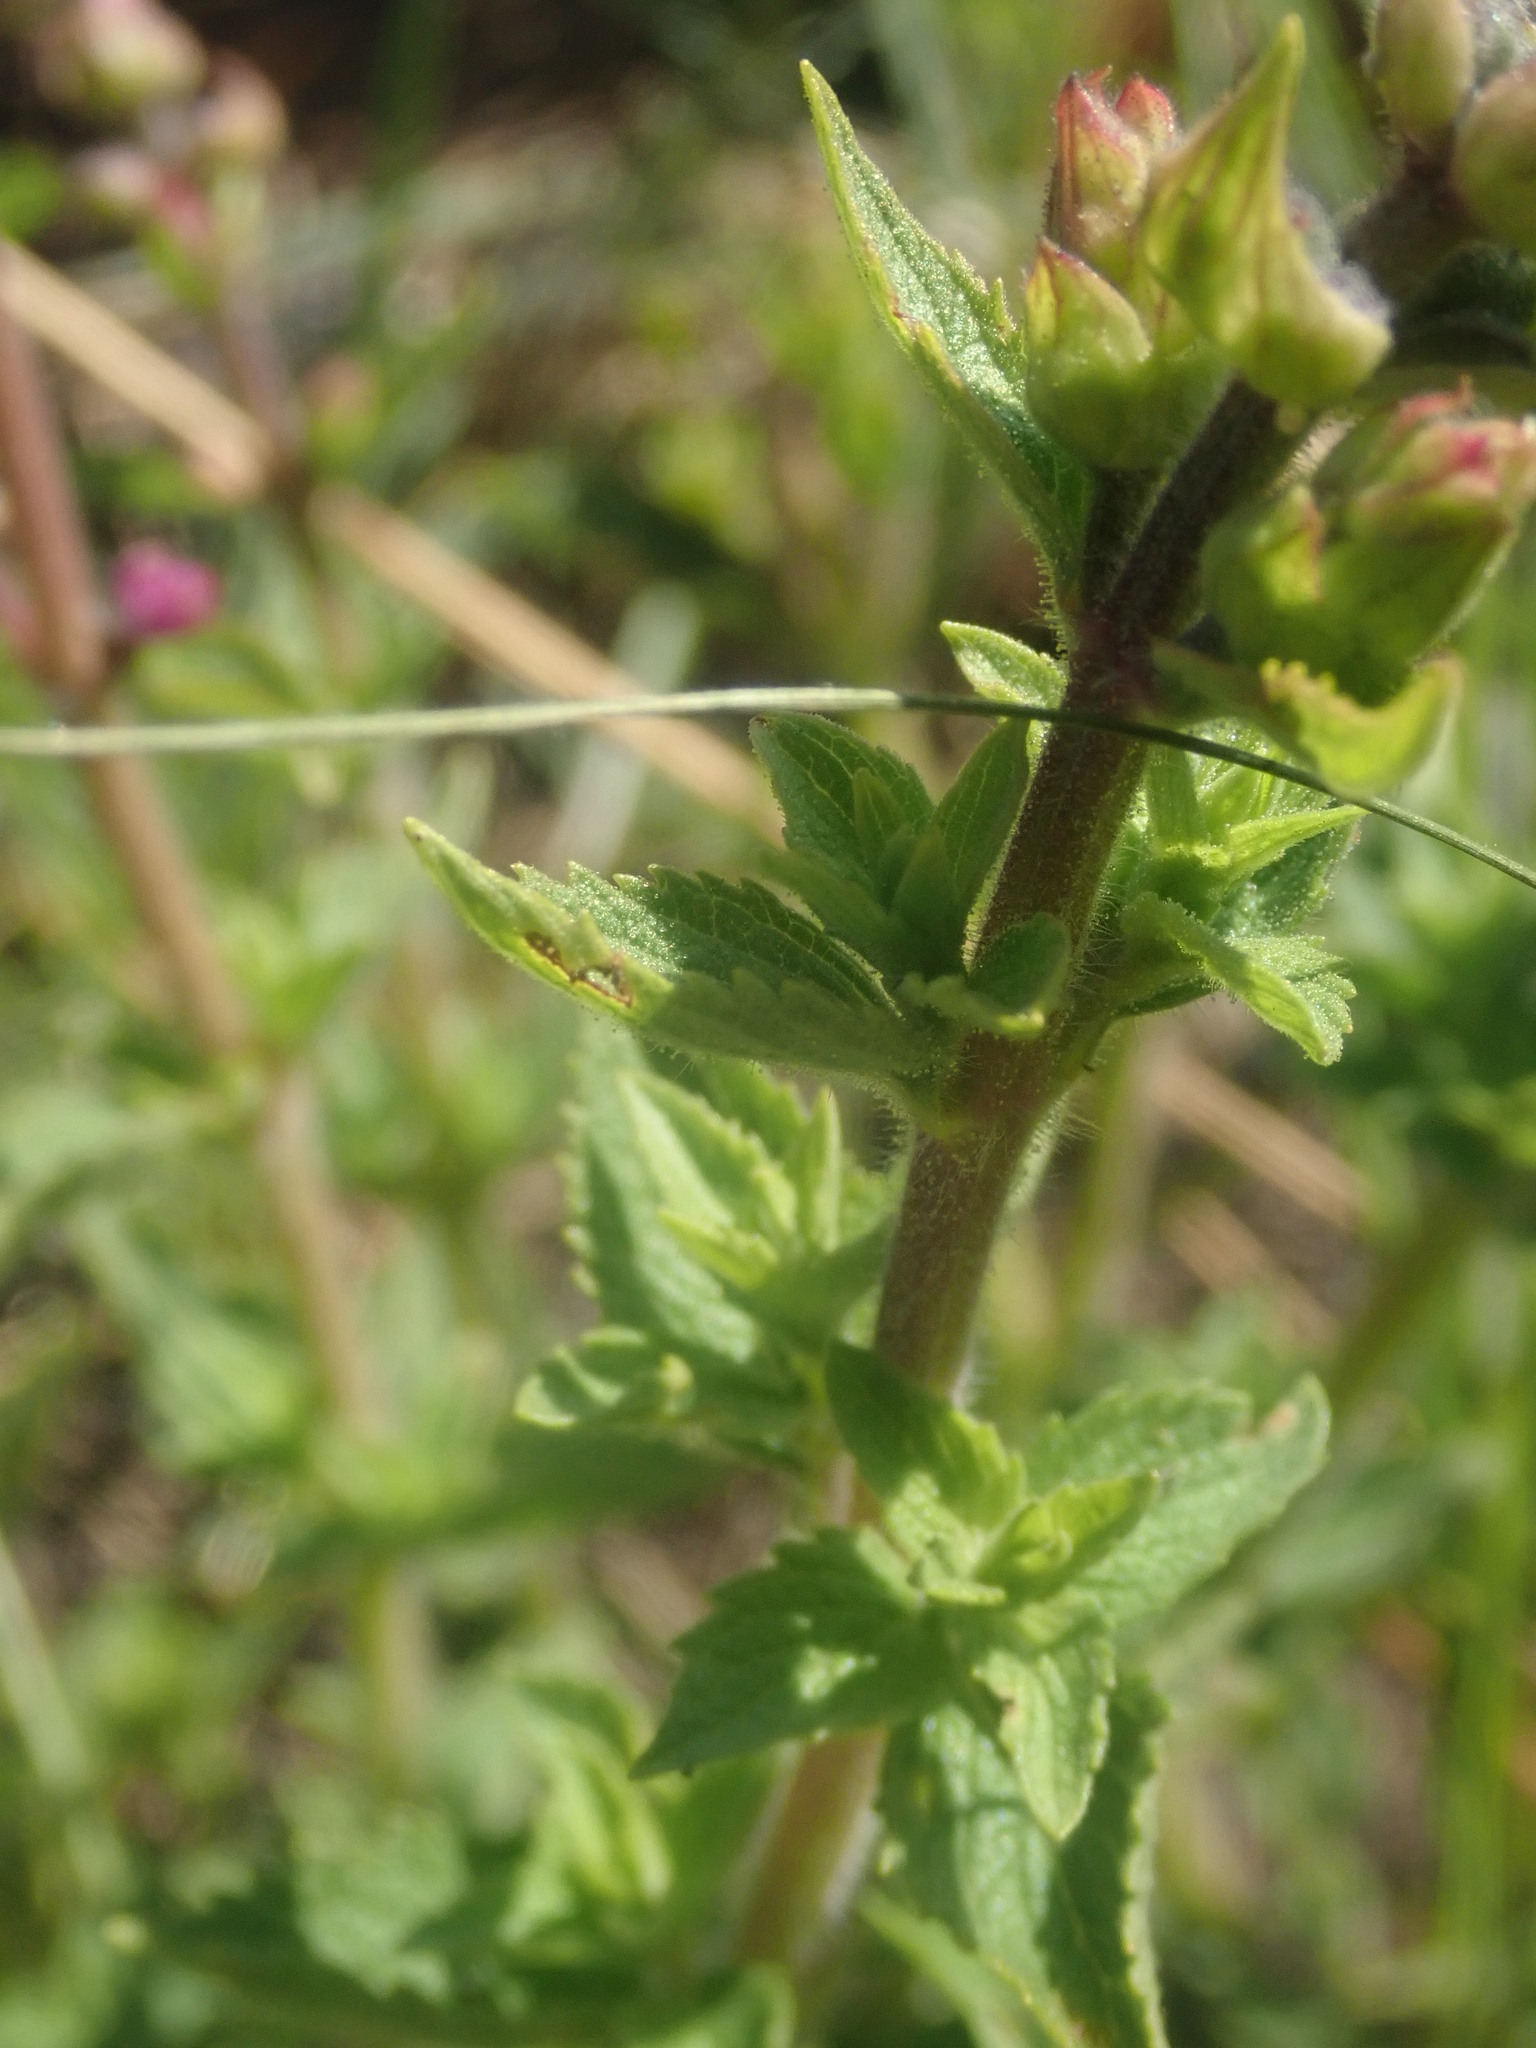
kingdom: Plantae
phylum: Tracheophyta
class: Magnoliopsida
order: Lamiales
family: Lamiaceae
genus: Syncolostemon
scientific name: Syncolostemon transvaalensis
